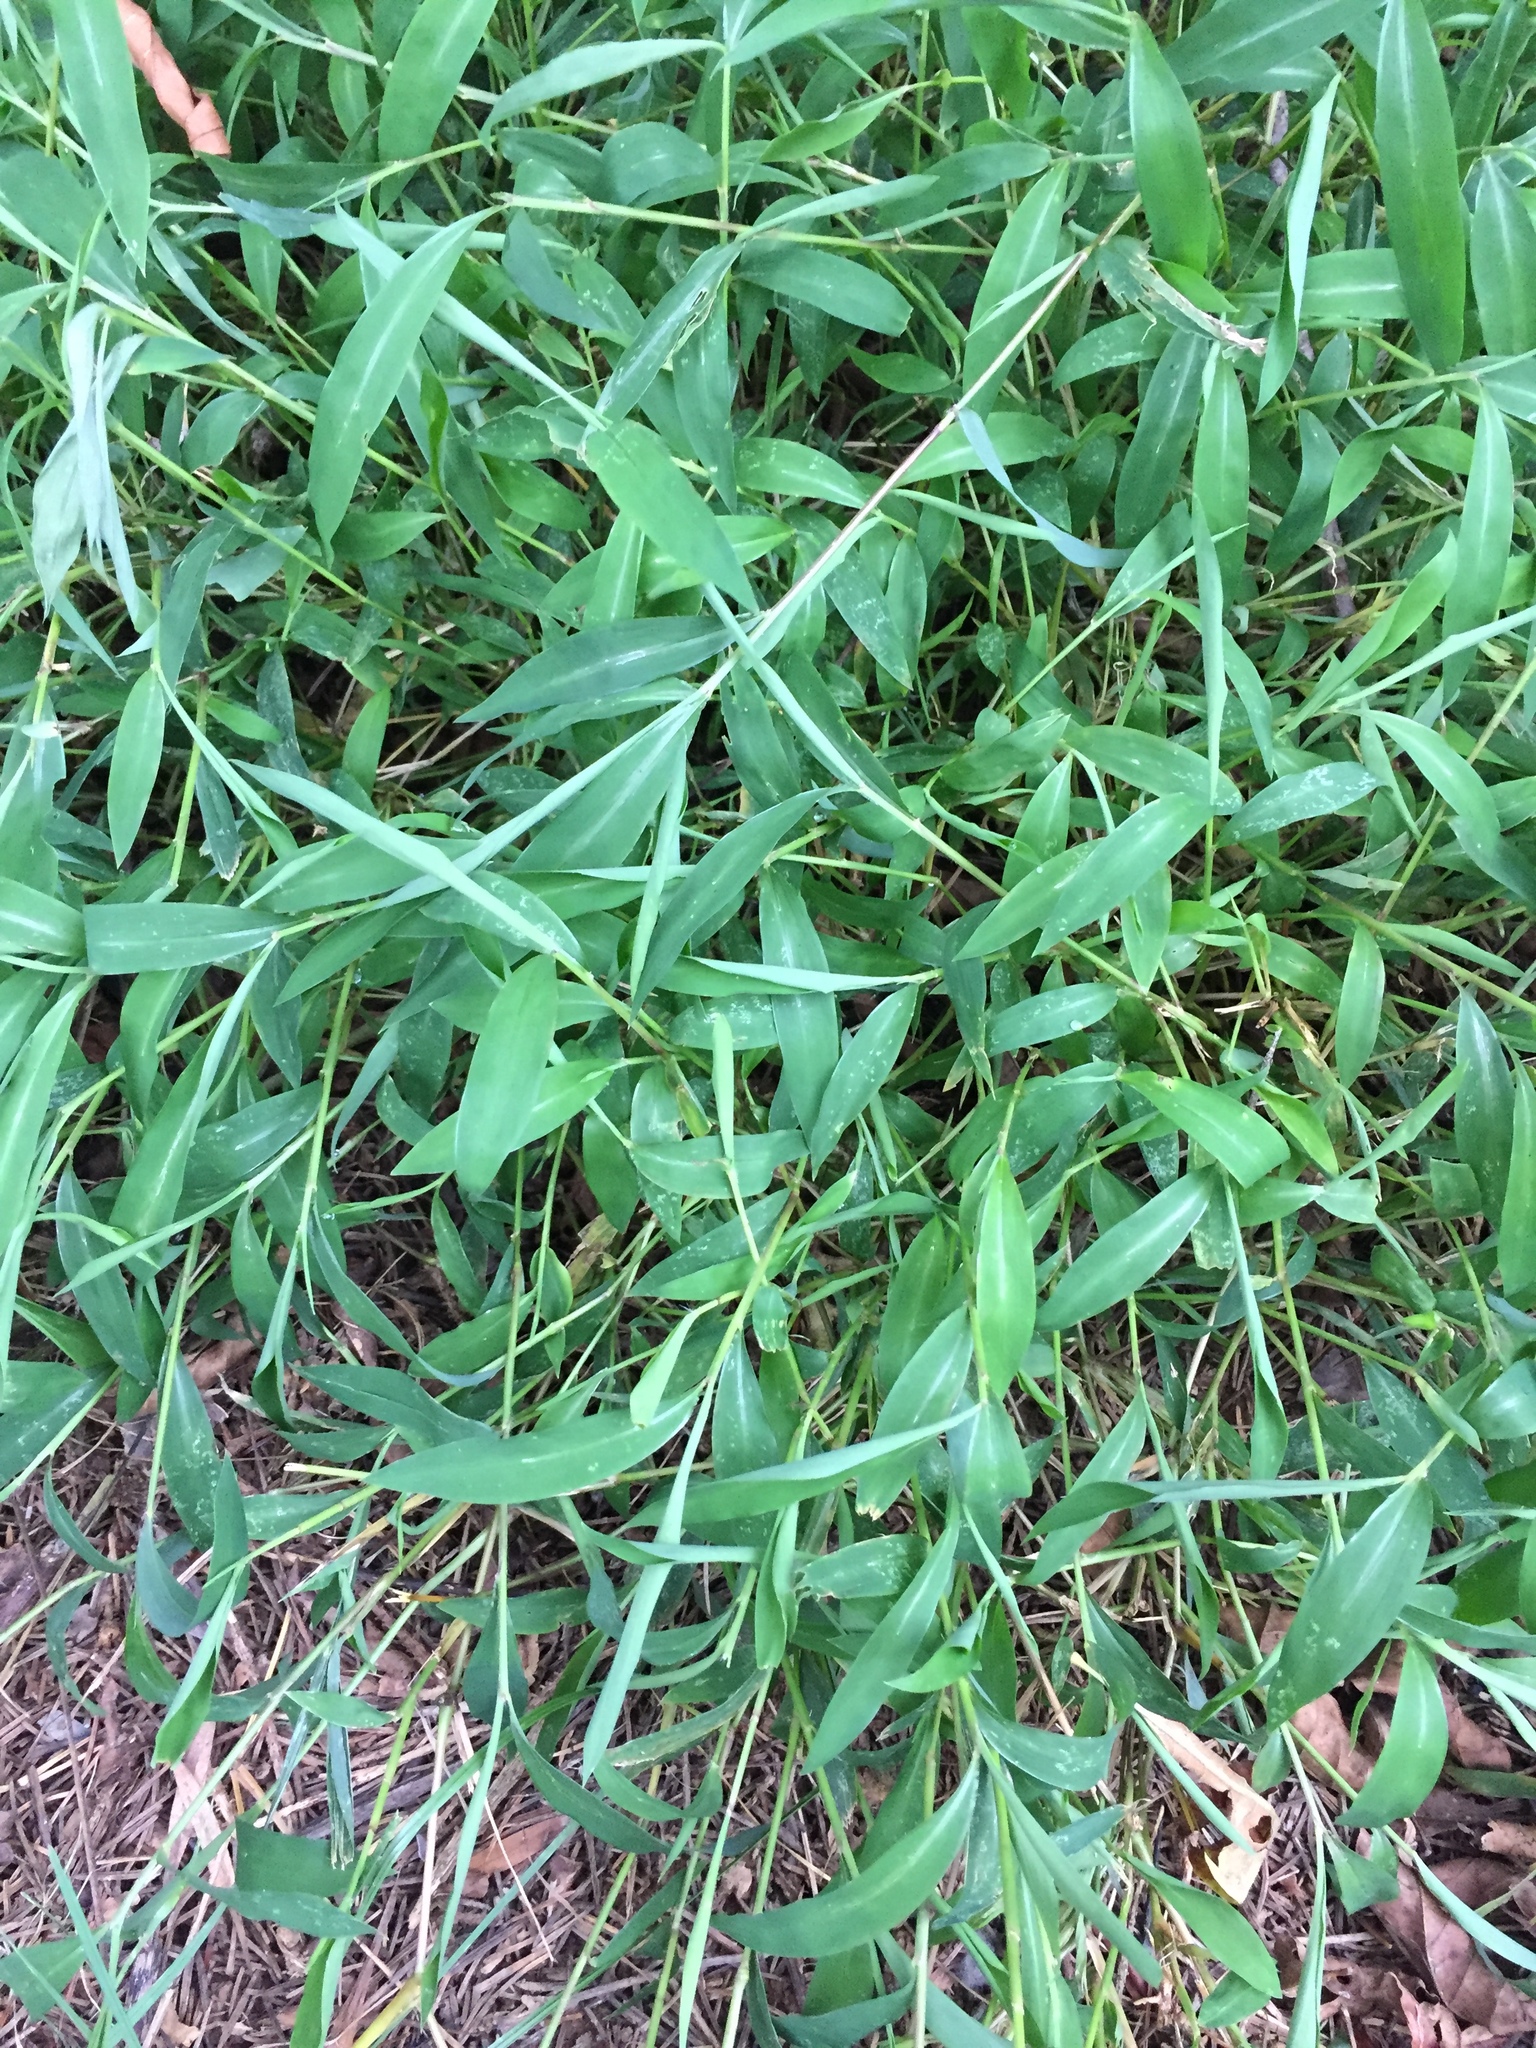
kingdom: Plantae
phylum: Tracheophyta
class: Liliopsida
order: Poales
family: Poaceae
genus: Microstegium
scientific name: Microstegium vimineum
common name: Japanese stiltgrass
